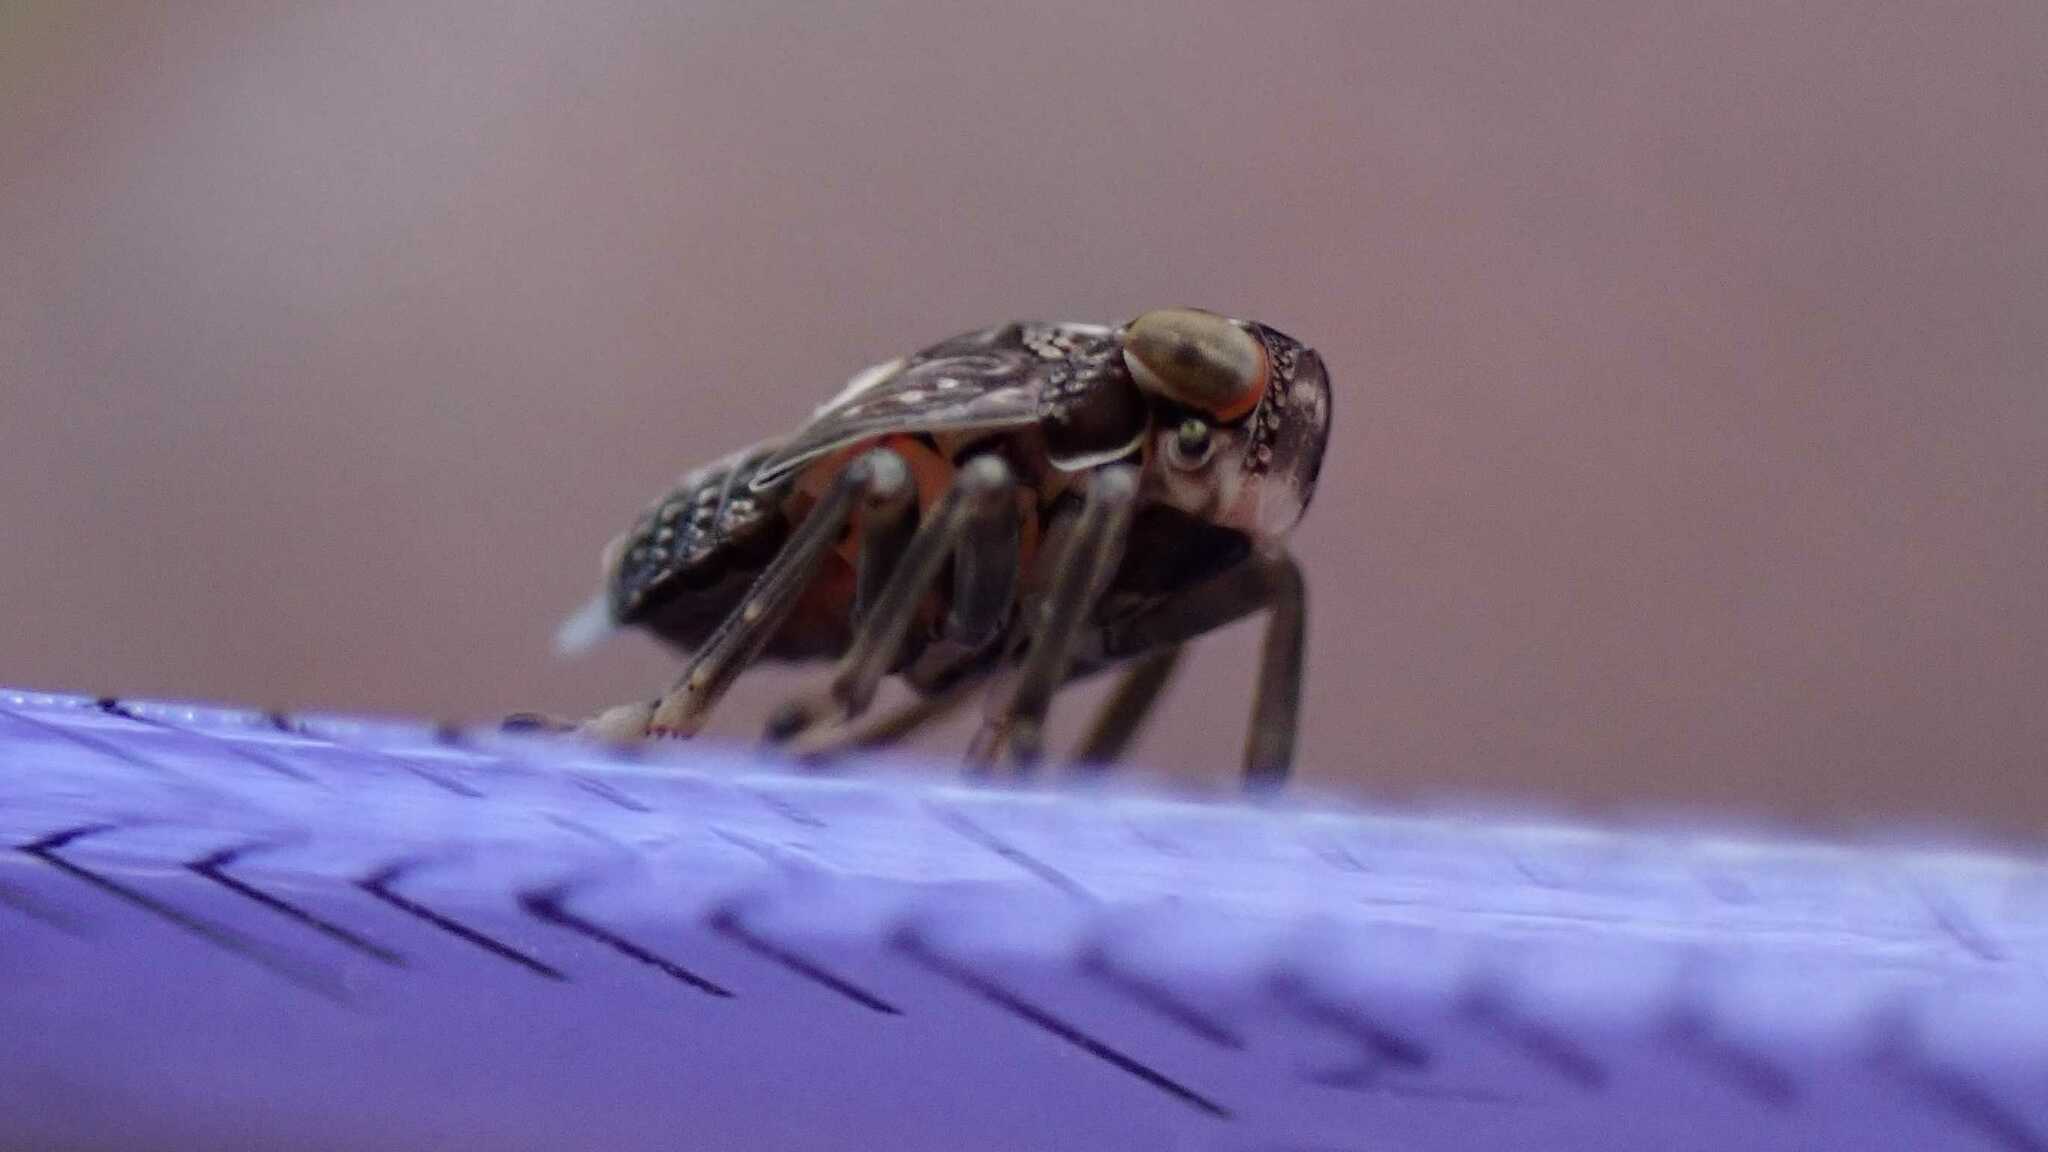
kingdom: Animalia
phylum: Arthropoda
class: Insecta
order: Hemiptera
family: Issidae
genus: Issus
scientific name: Issus coleoptratus
